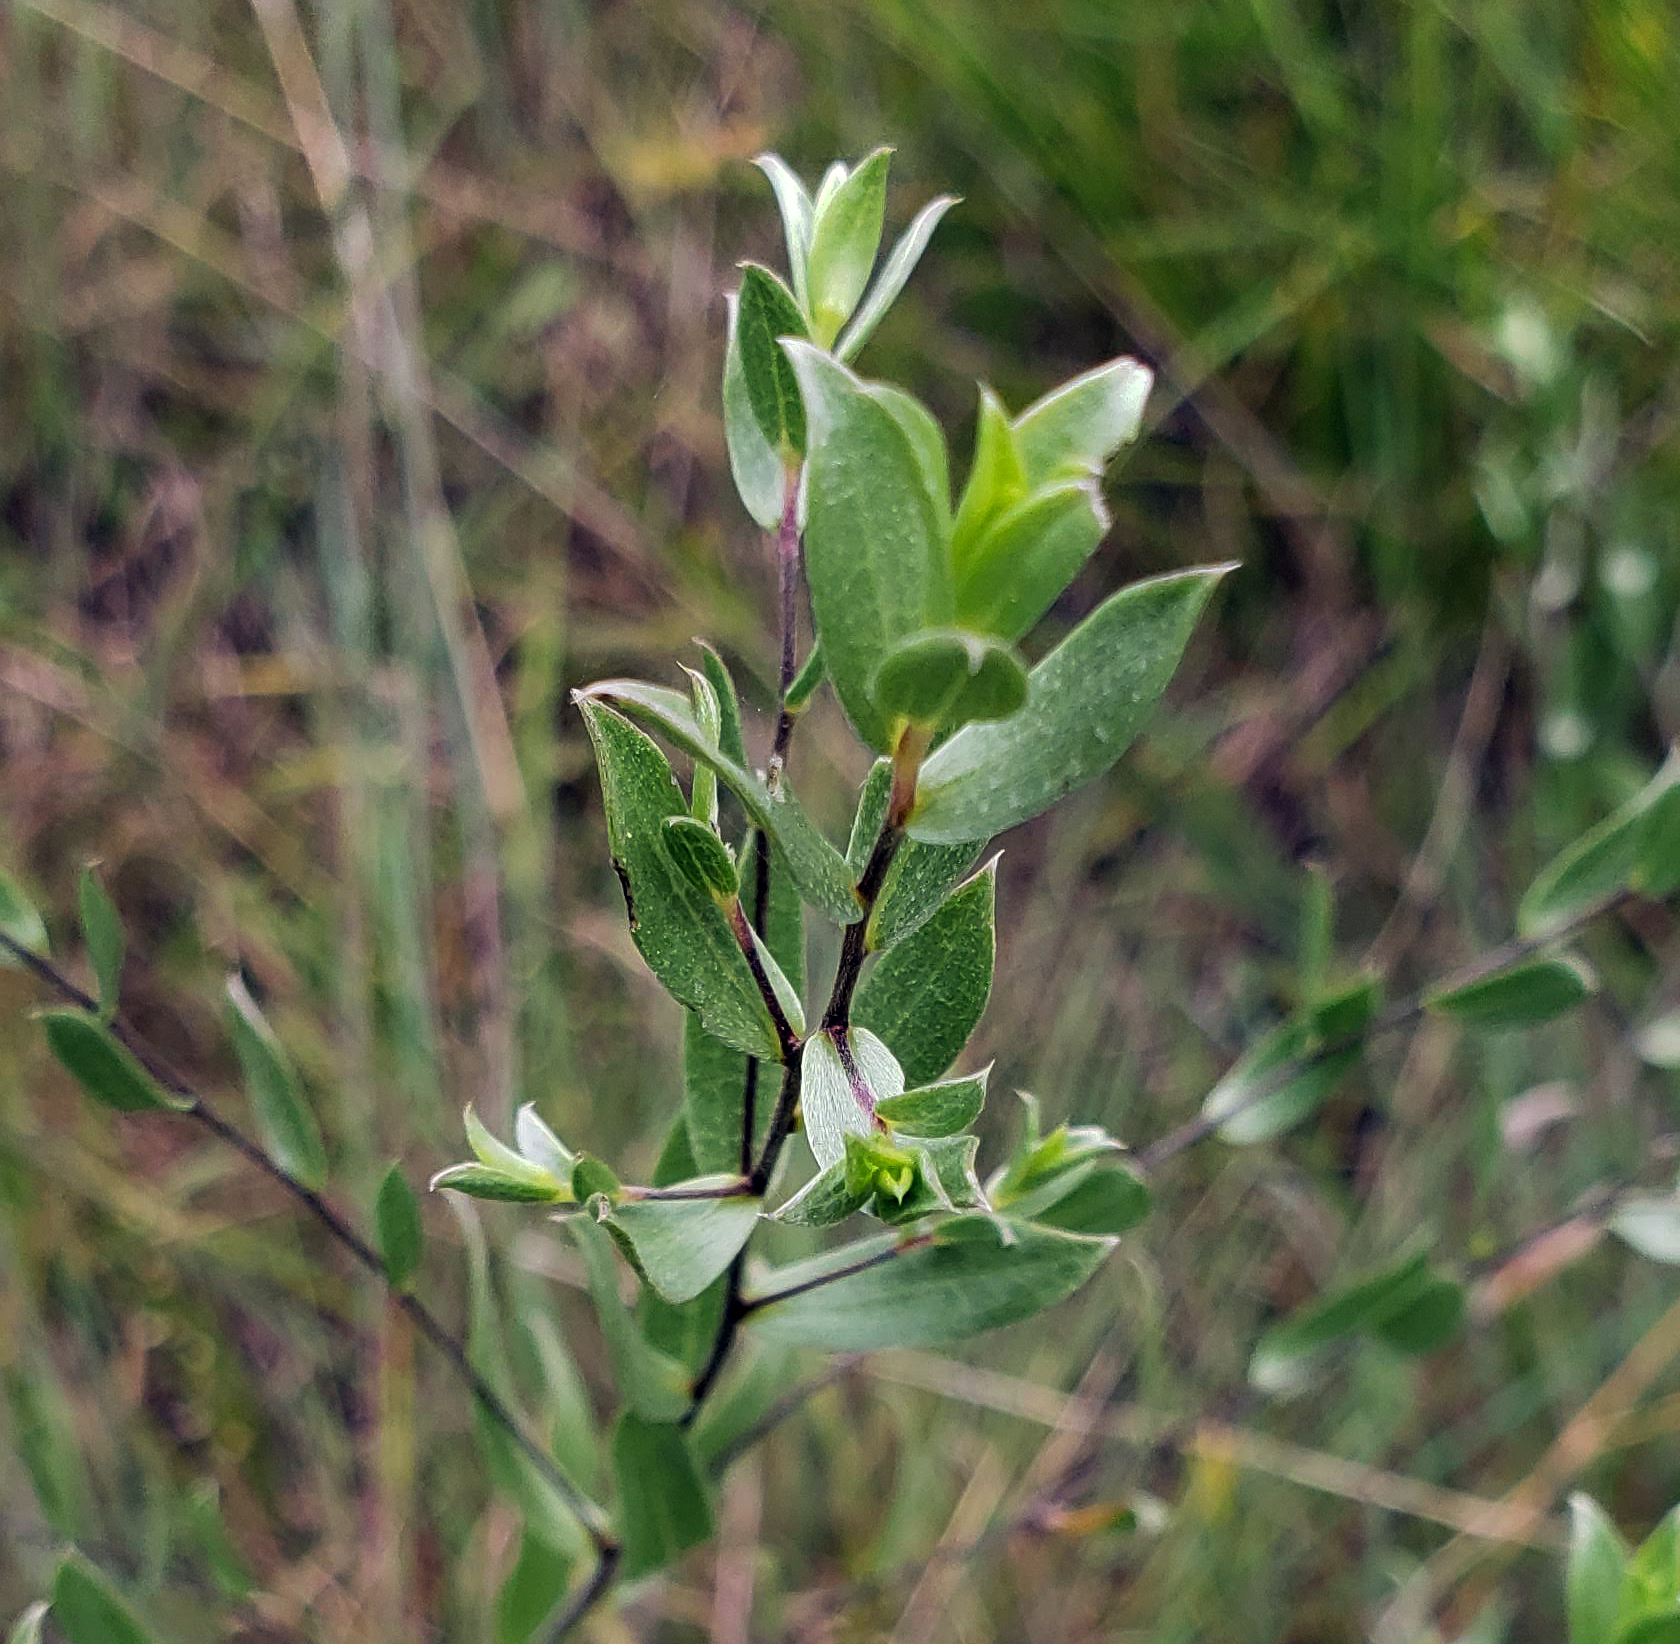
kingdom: Plantae
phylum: Tracheophyta
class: Magnoliopsida
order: Asterales
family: Asteraceae
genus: Symphyotrichum
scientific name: Symphyotrichum sericeum
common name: Silky aster
